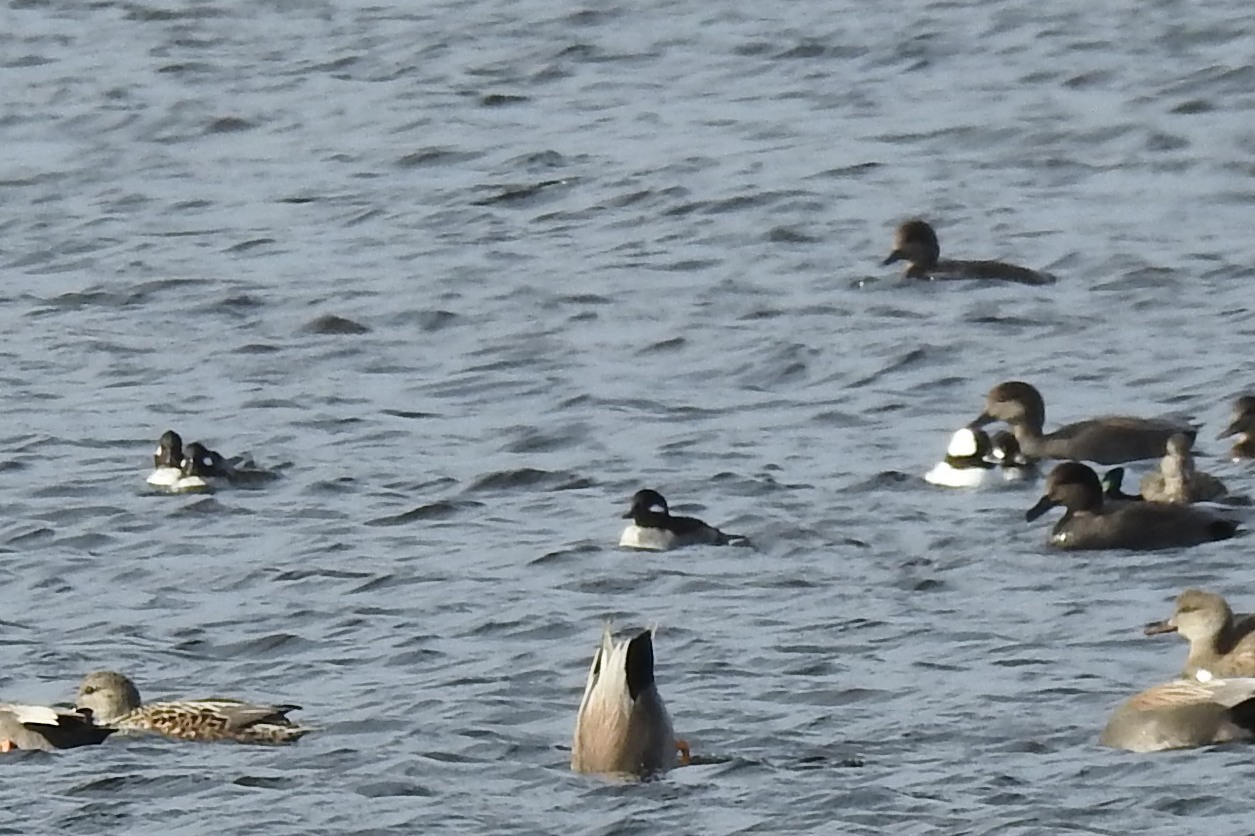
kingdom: Animalia
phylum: Chordata
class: Aves
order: Anseriformes
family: Anatidae
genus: Bucephala
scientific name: Bucephala albeola
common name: Bufflehead
